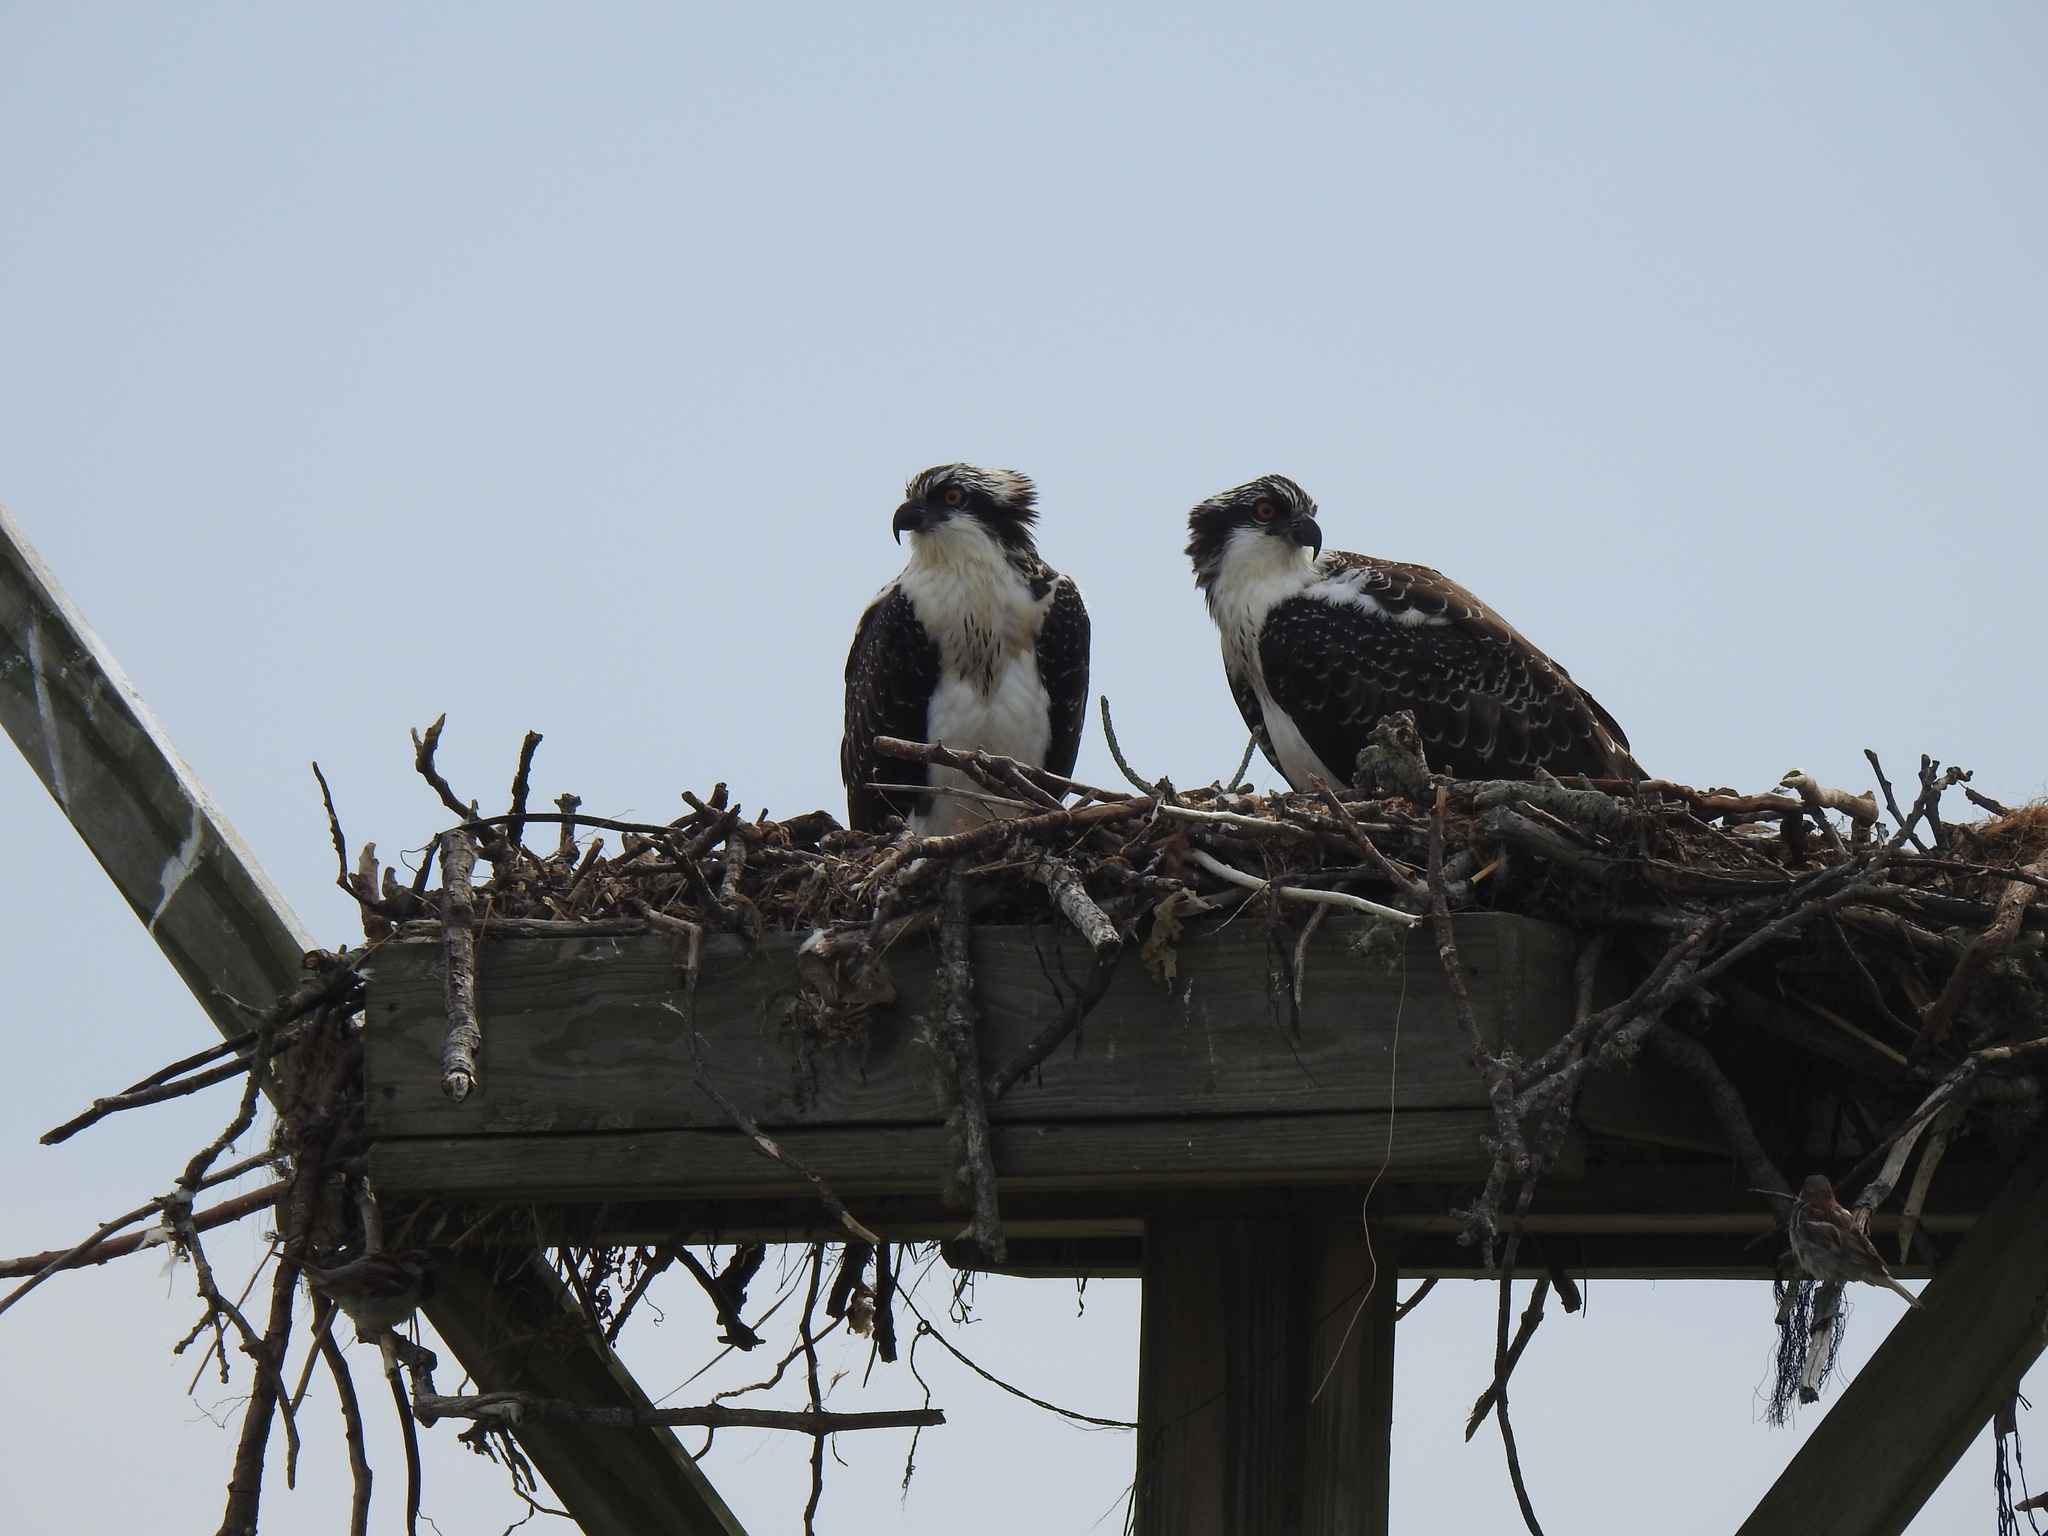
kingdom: Animalia
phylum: Chordata
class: Aves
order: Accipitriformes
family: Pandionidae
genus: Pandion
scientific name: Pandion haliaetus
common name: Osprey
